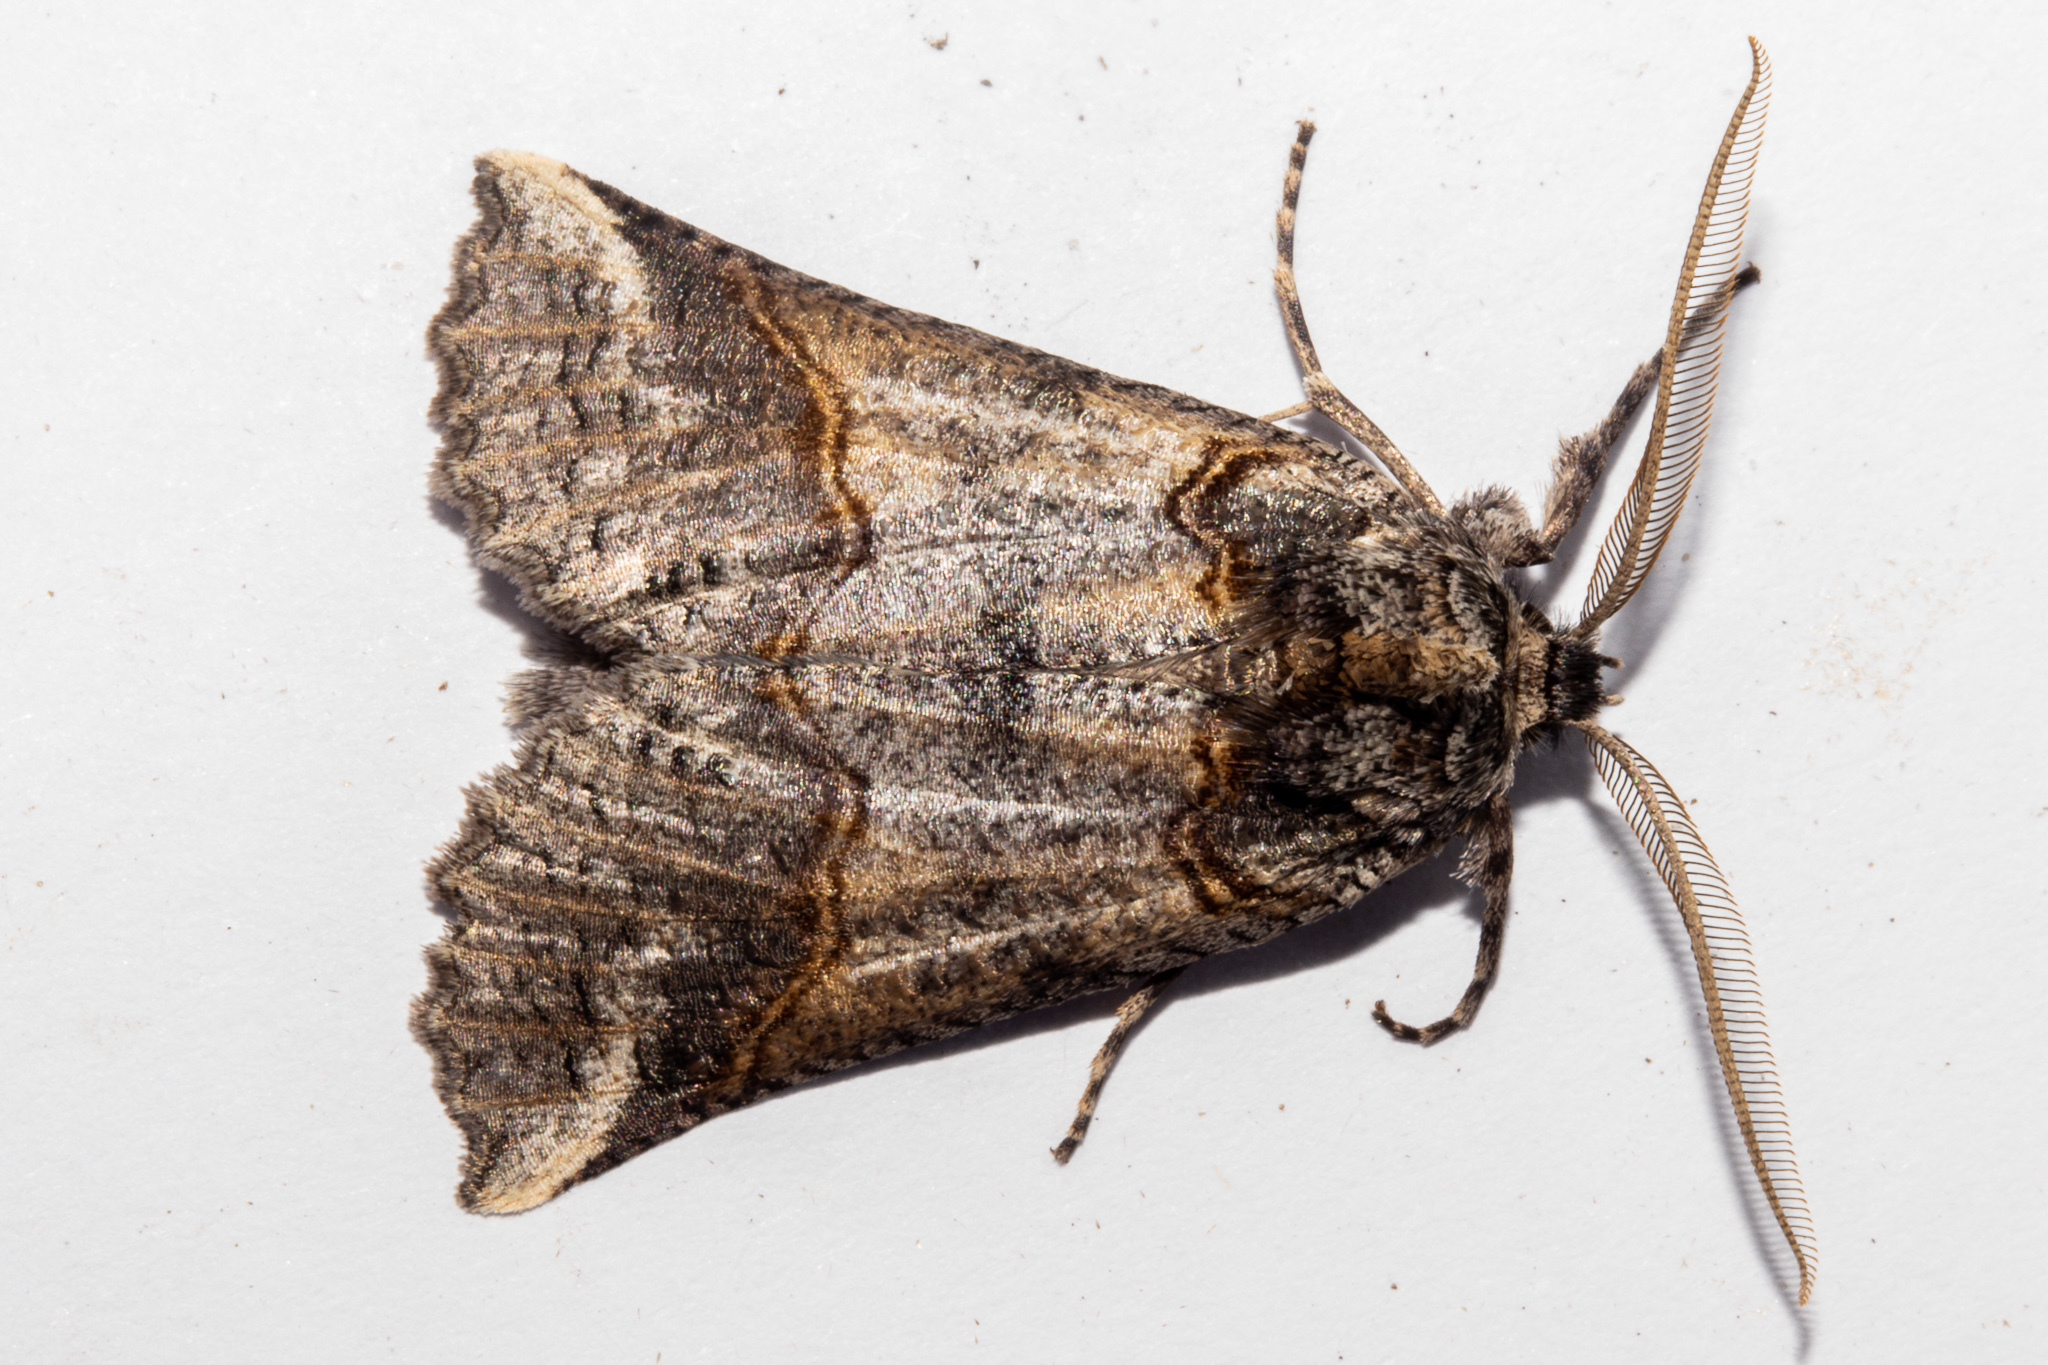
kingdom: Animalia
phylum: Arthropoda
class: Insecta
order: Lepidoptera
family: Geometridae
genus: Declana
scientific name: Declana
